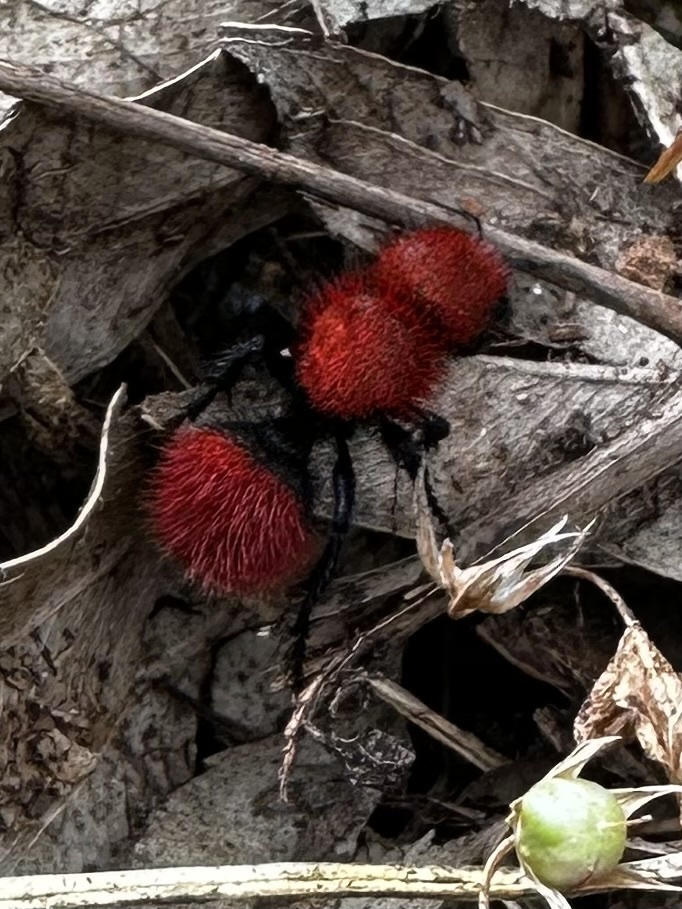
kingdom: Animalia
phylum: Arthropoda
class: Insecta
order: Hymenoptera
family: Mutillidae
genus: Dasymutilla
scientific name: Dasymutilla
